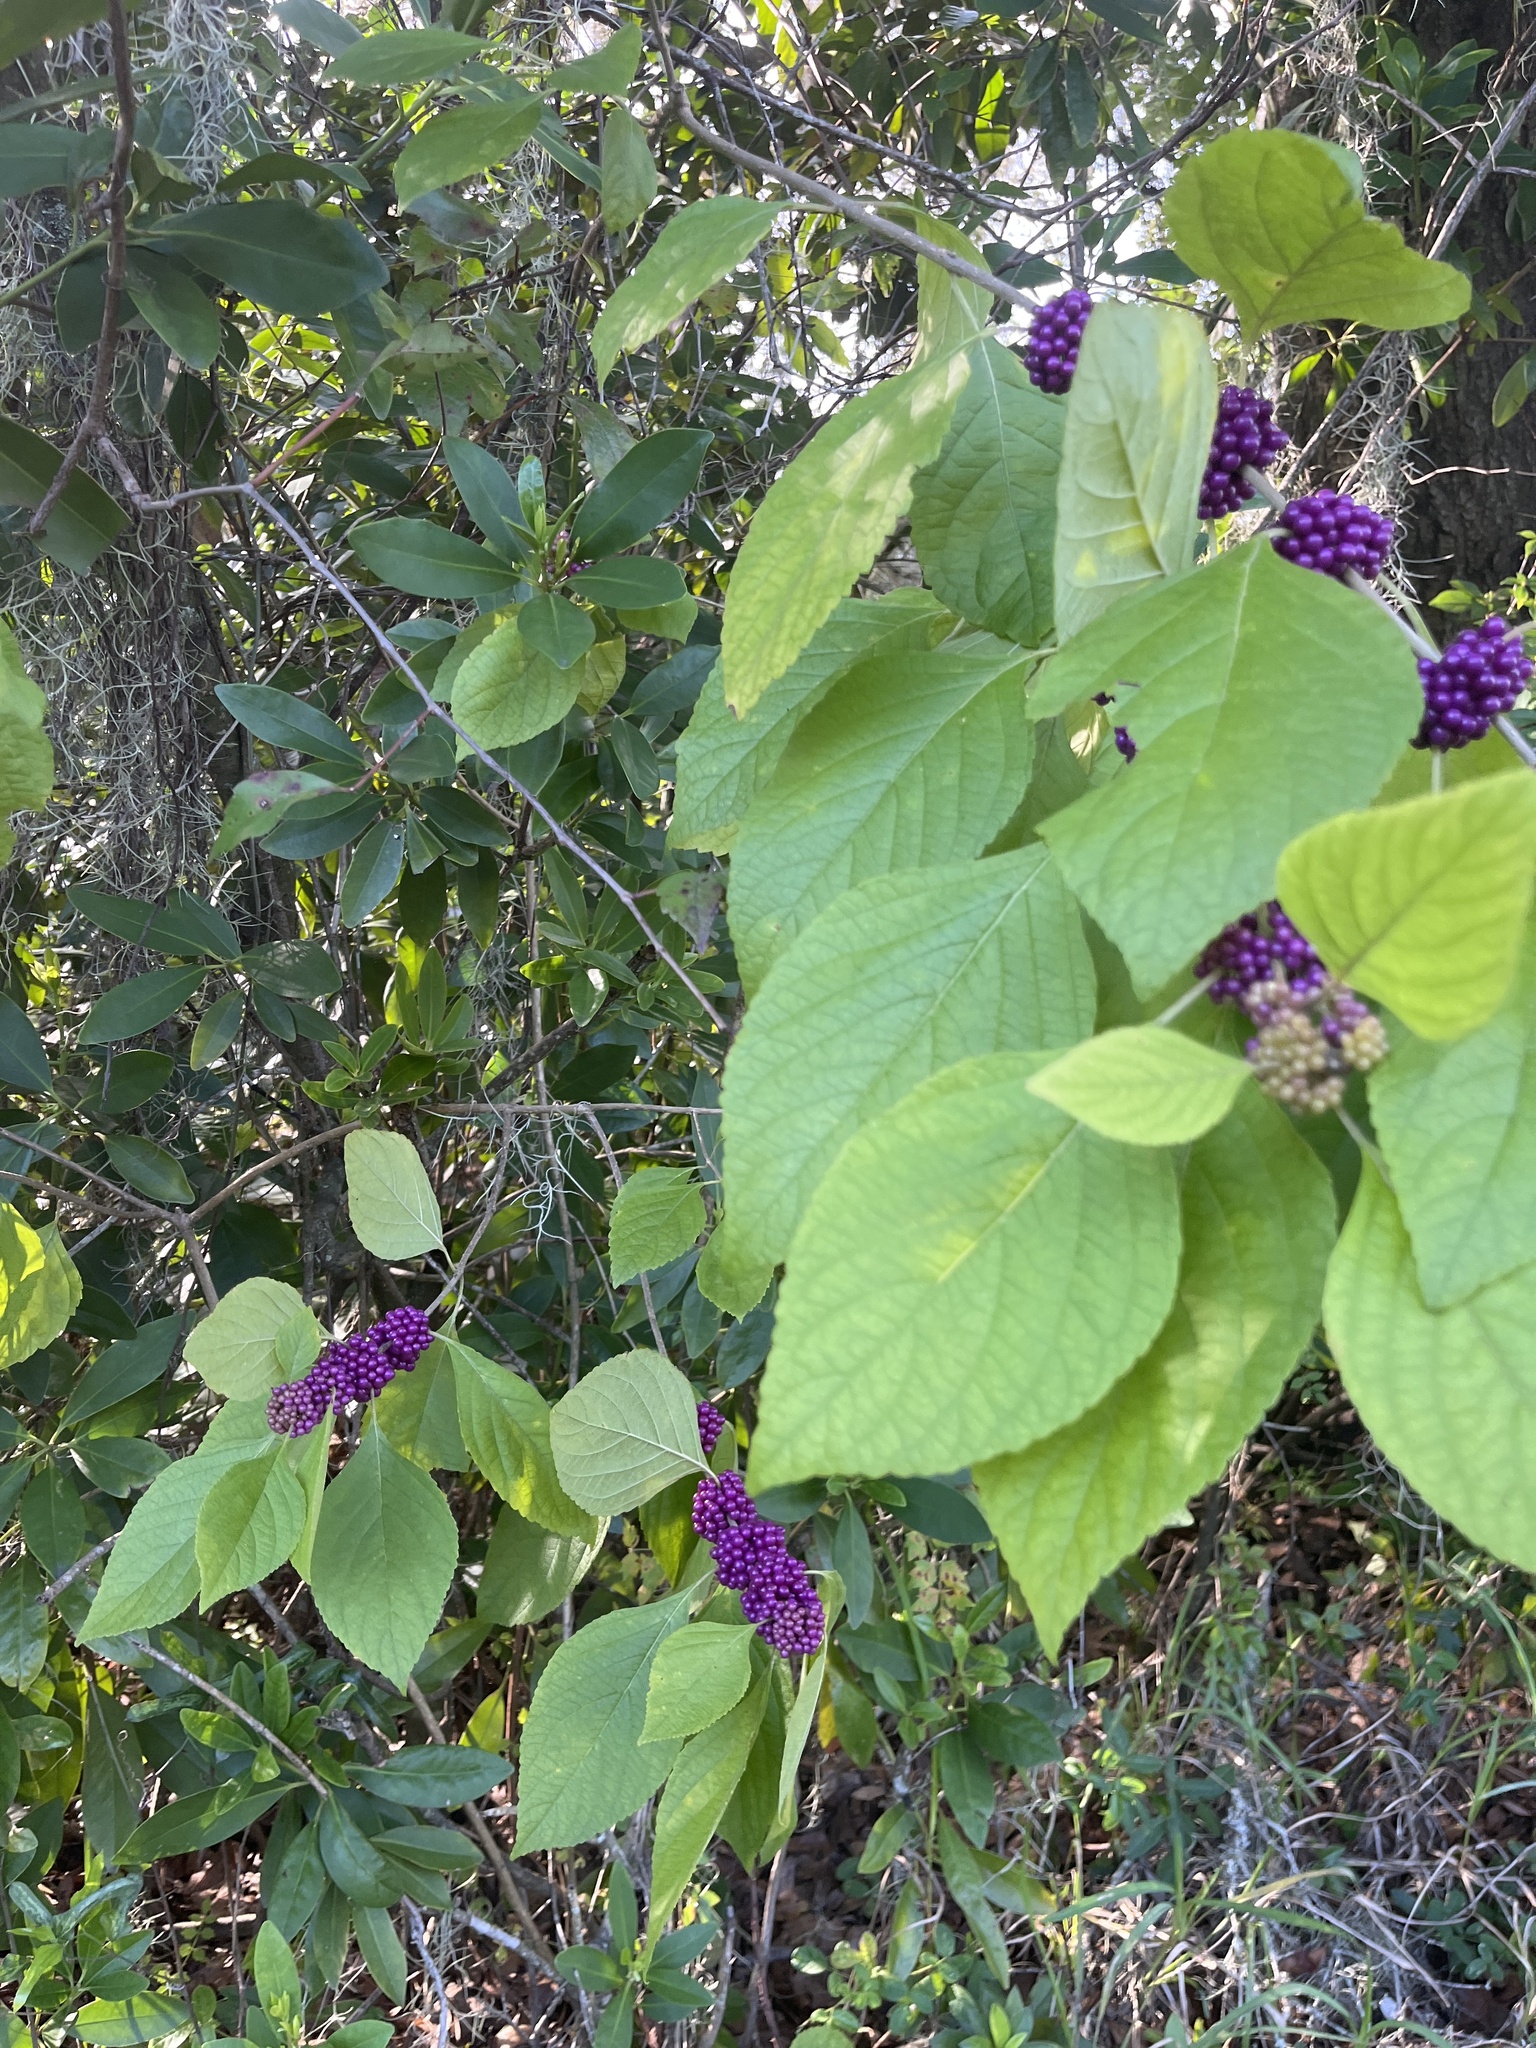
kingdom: Plantae
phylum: Tracheophyta
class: Magnoliopsida
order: Lamiales
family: Lamiaceae
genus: Callicarpa
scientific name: Callicarpa americana
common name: American beautyberry
